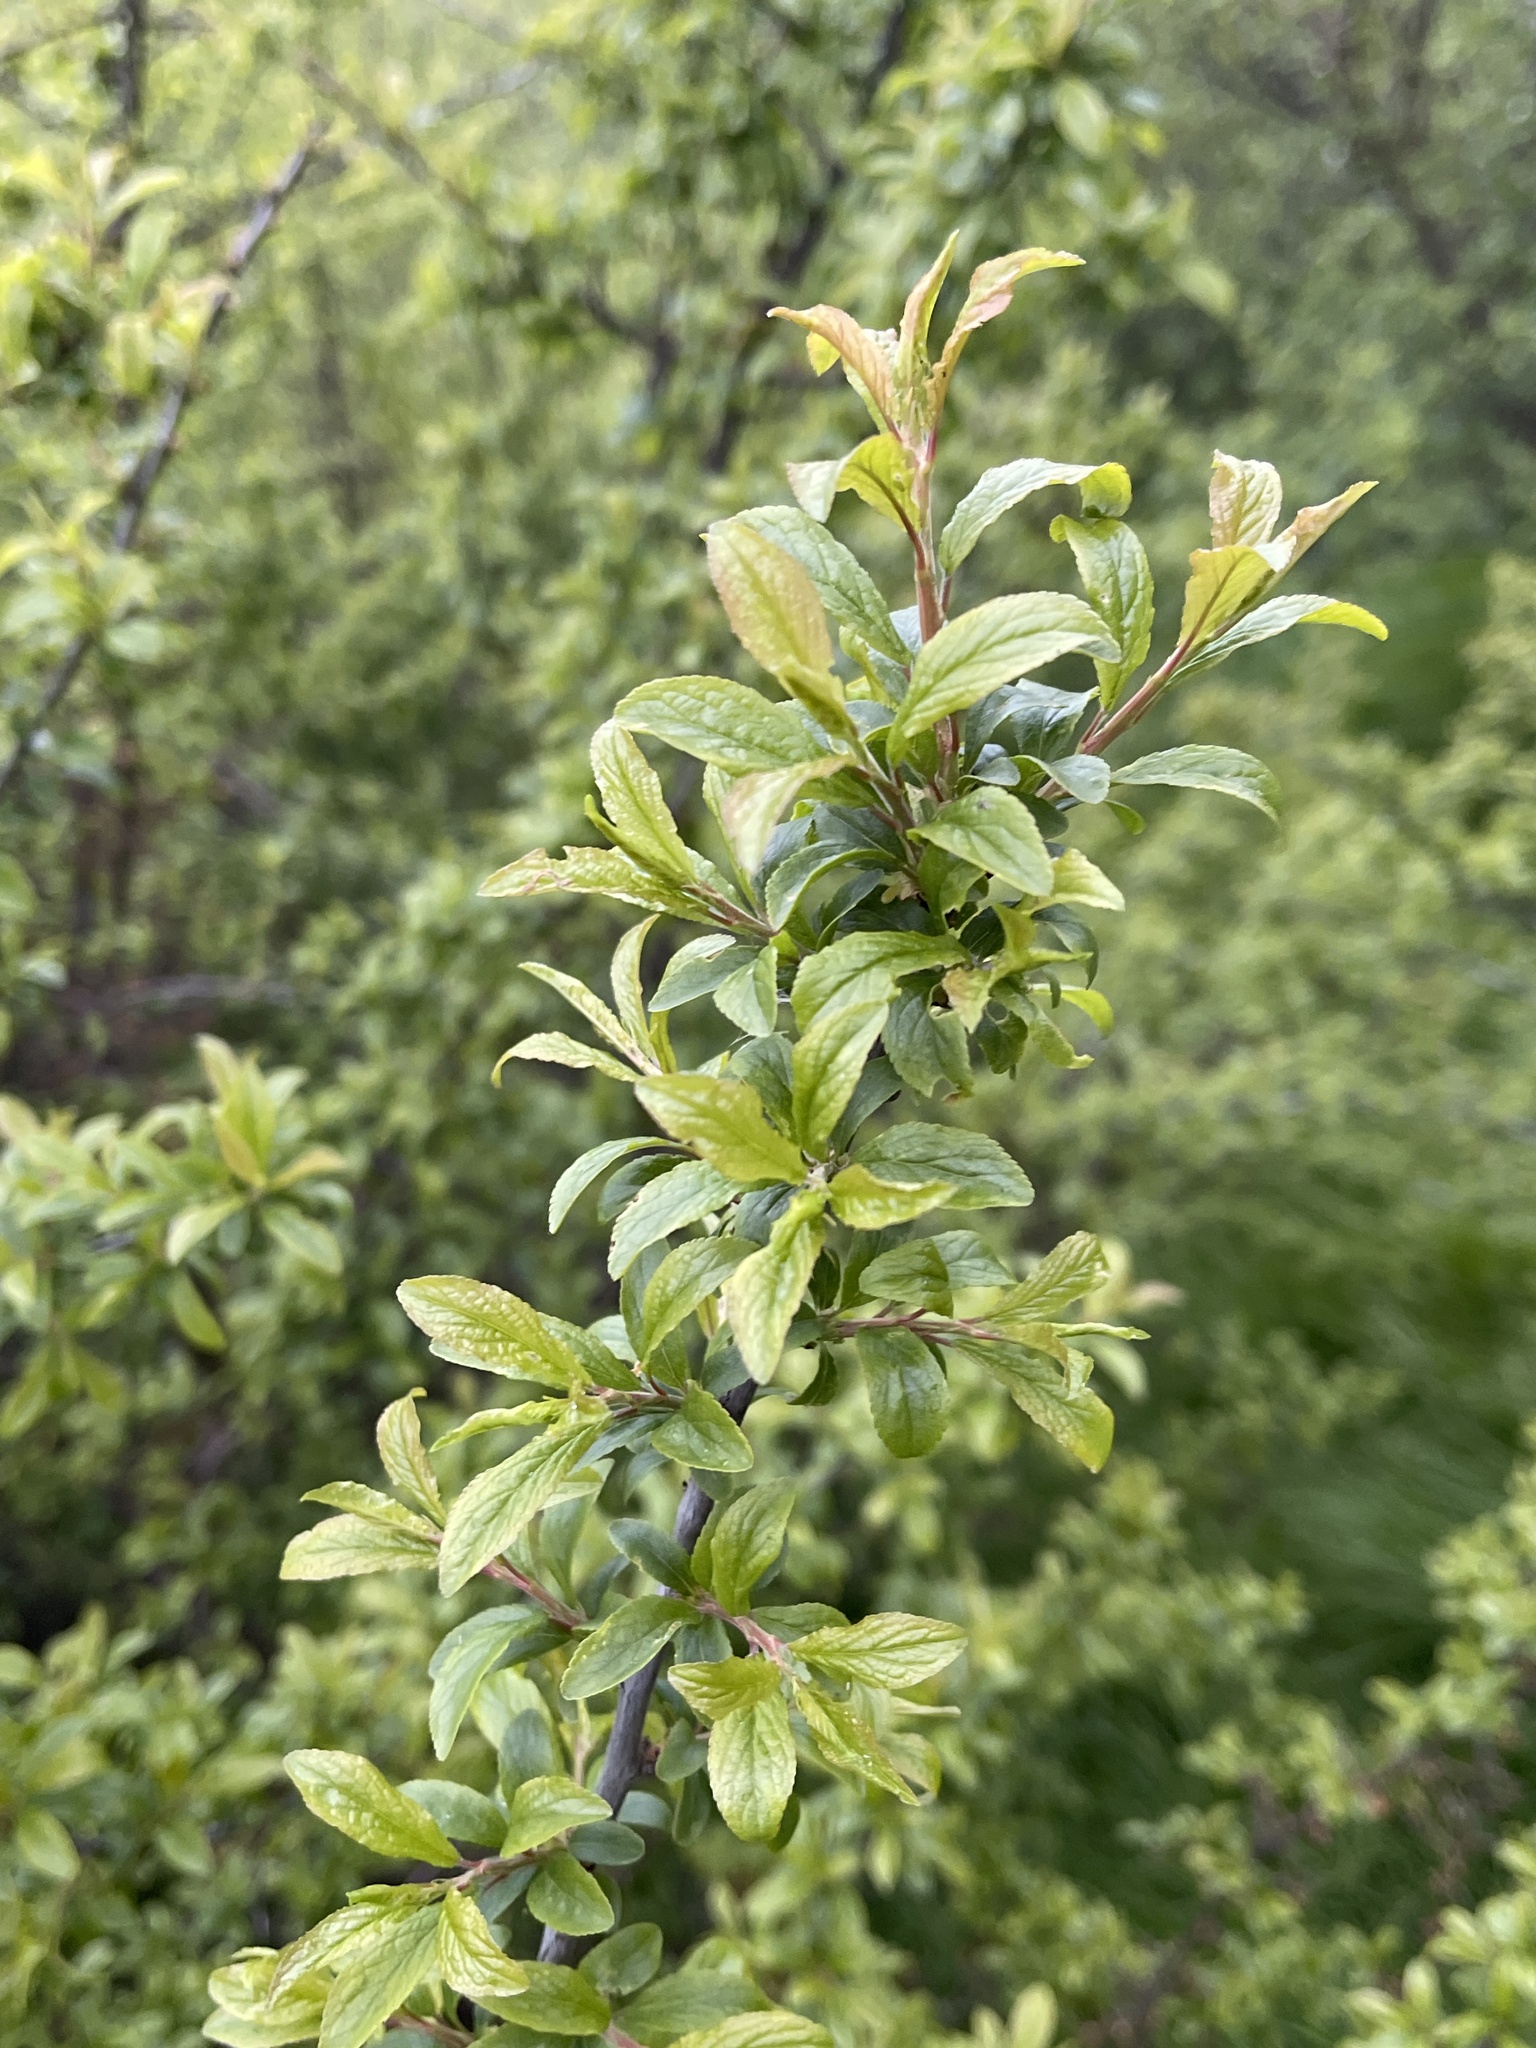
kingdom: Plantae
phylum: Tracheophyta
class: Magnoliopsida
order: Rosales
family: Rosaceae
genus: Prunus
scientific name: Prunus spinosa
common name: Blackthorn
